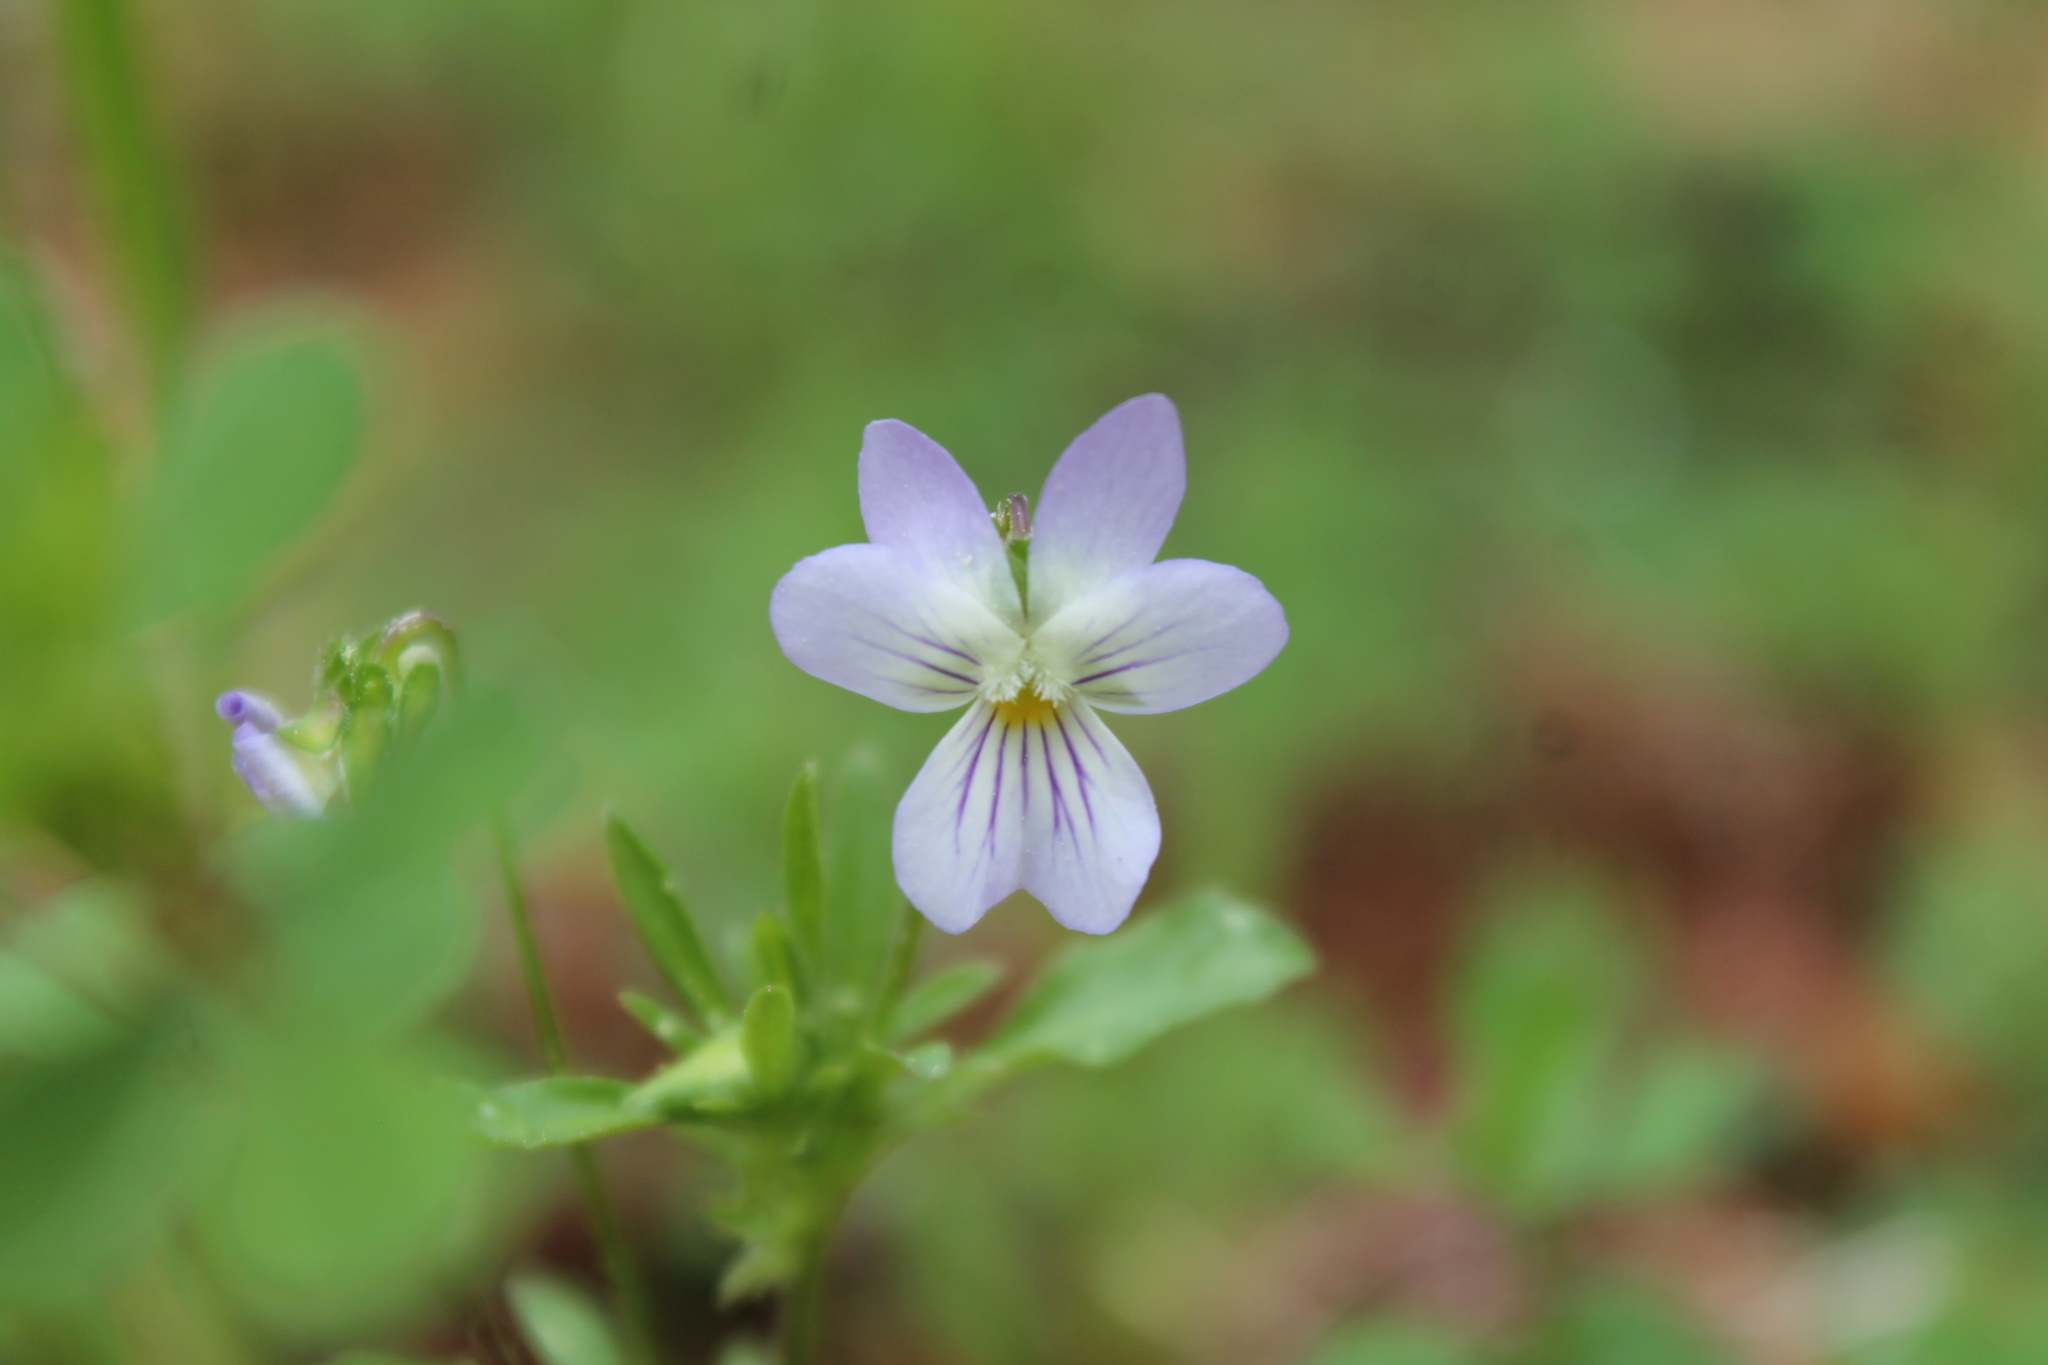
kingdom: Plantae
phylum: Tracheophyta
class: Magnoliopsida
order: Malpighiales
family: Violaceae
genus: Viola
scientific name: Viola rafinesquei
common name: American field pansy
